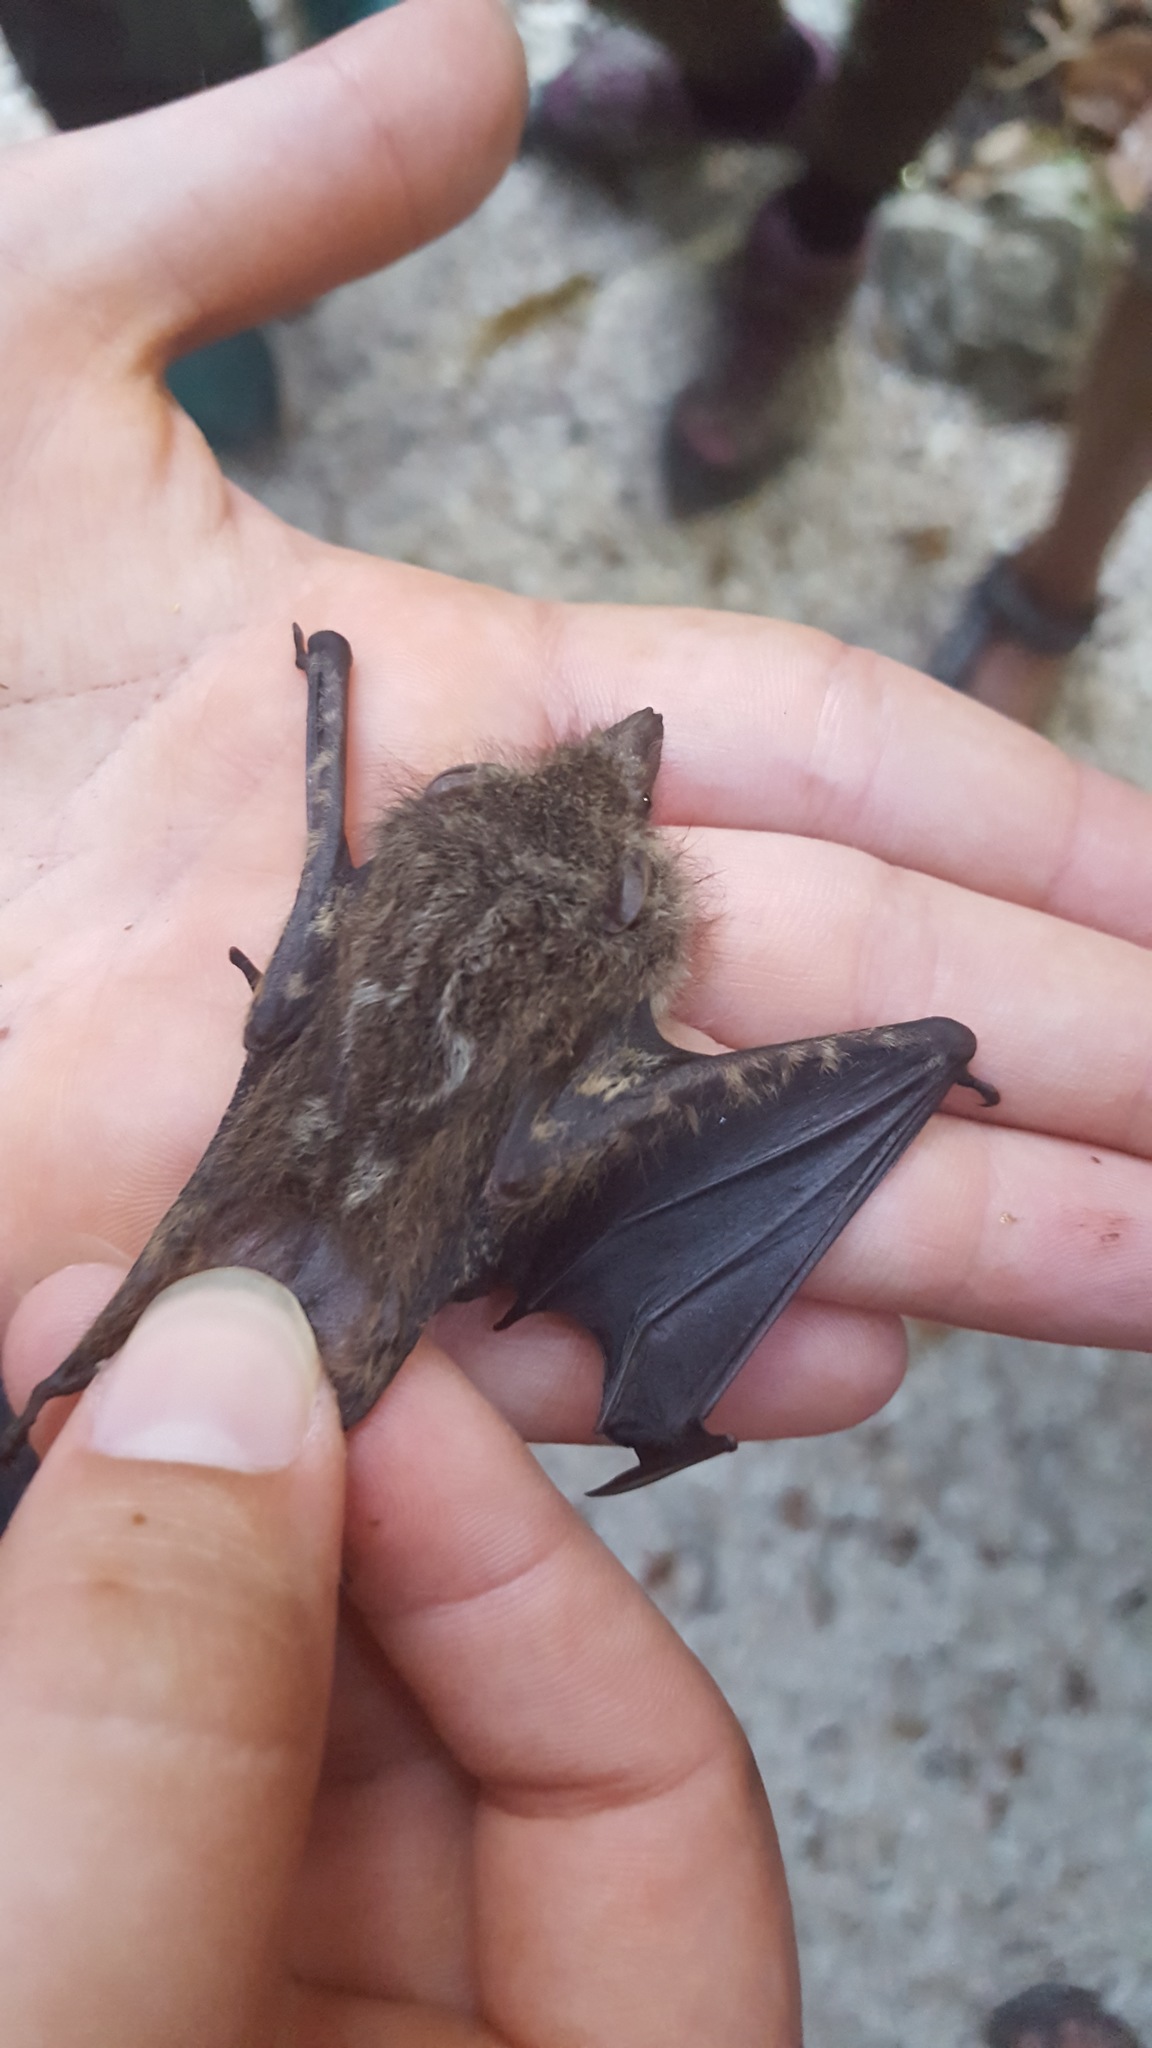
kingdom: Animalia
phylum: Chordata
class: Mammalia
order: Chiroptera
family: Emballonuridae
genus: Rhynchonycteris
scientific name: Rhynchonycteris naso
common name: Proboscis bat
